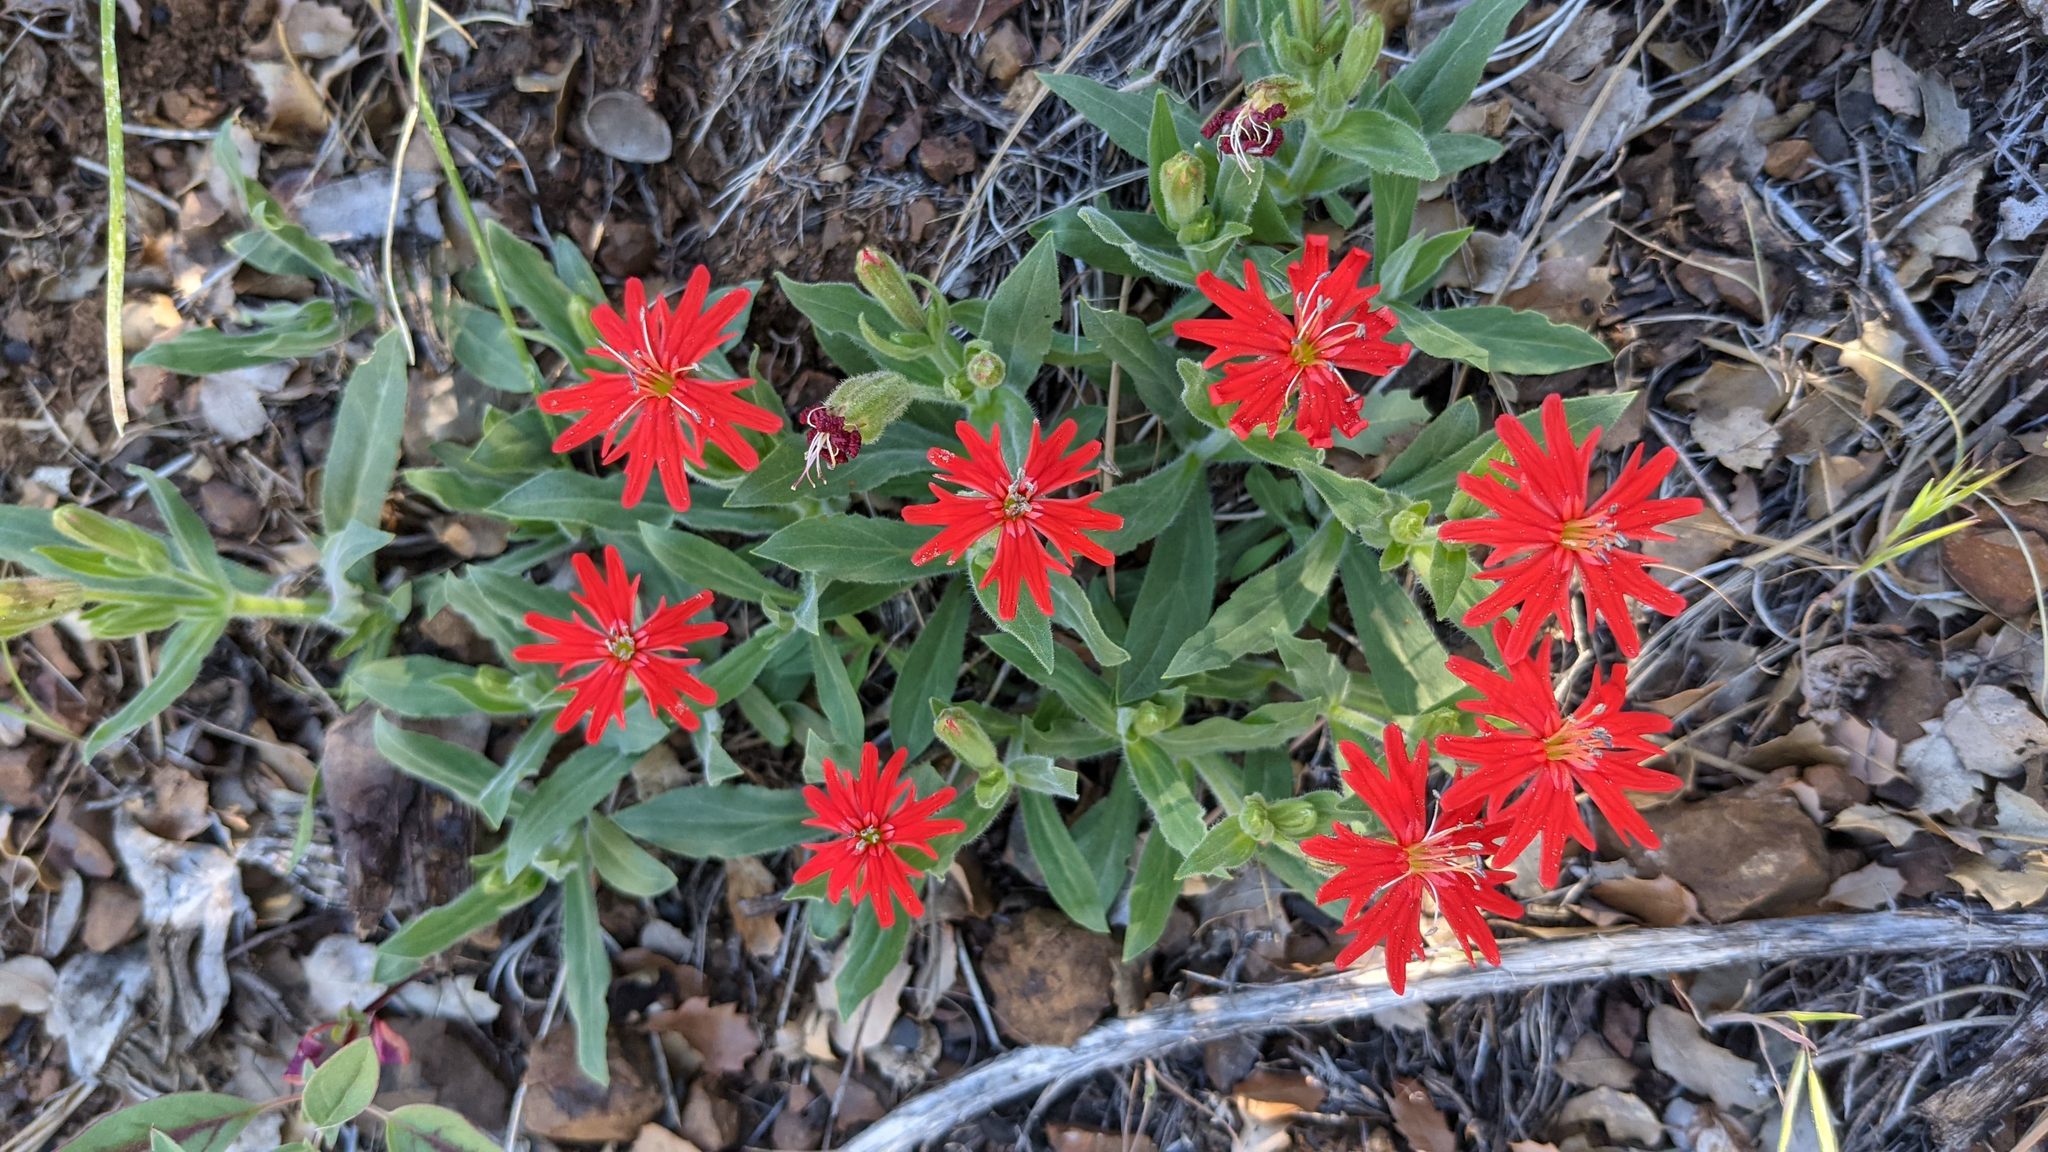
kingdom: Plantae
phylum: Tracheophyta
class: Magnoliopsida
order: Caryophyllales
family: Caryophyllaceae
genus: Silene
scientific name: Silene laciniata
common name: Indian-pink
